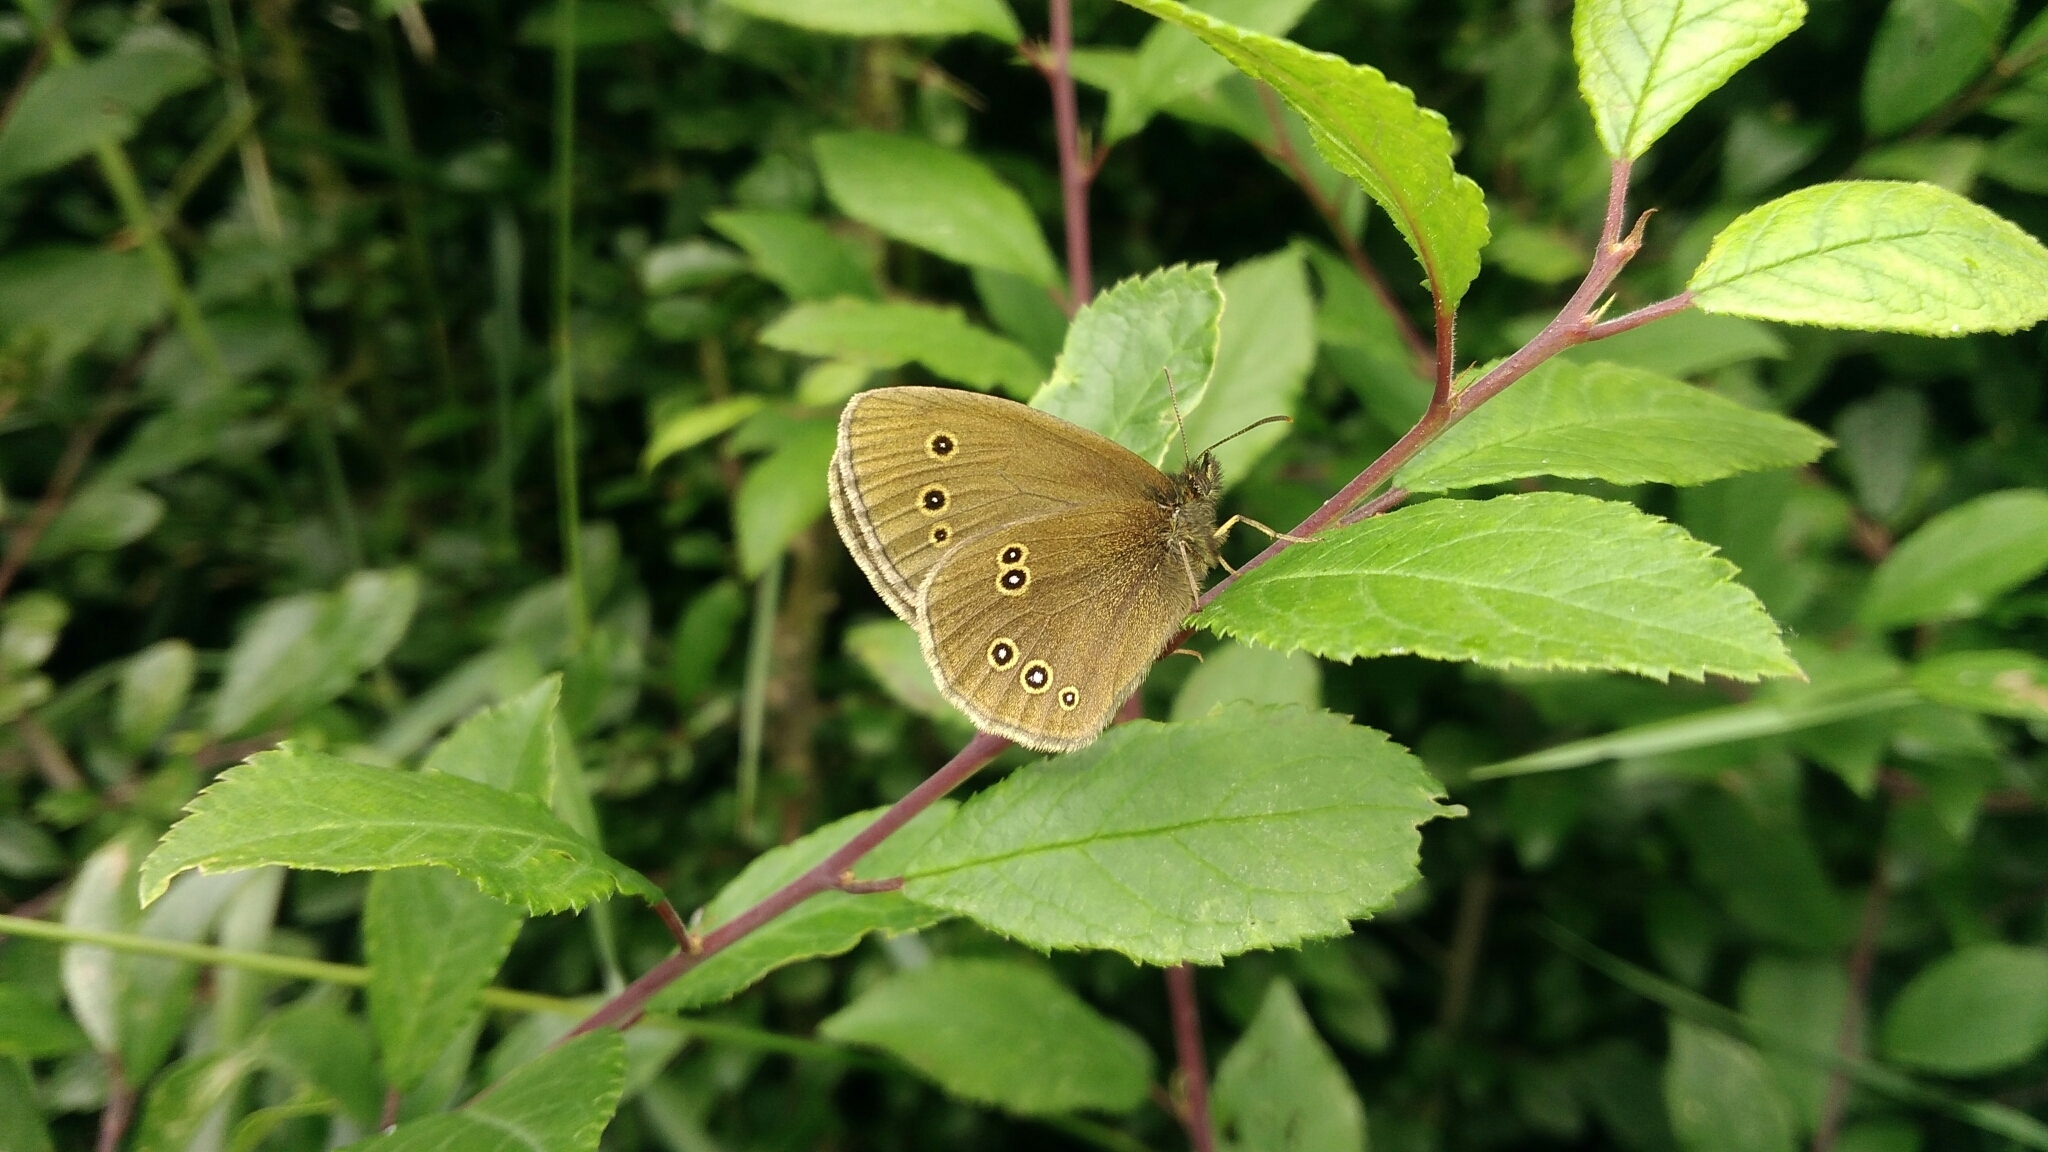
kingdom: Animalia
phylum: Arthropoda
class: Insecta
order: Lepidoptera
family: Nymphalidae
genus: Aphantopus
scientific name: Aphantopus hyperantus
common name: Ringlet
